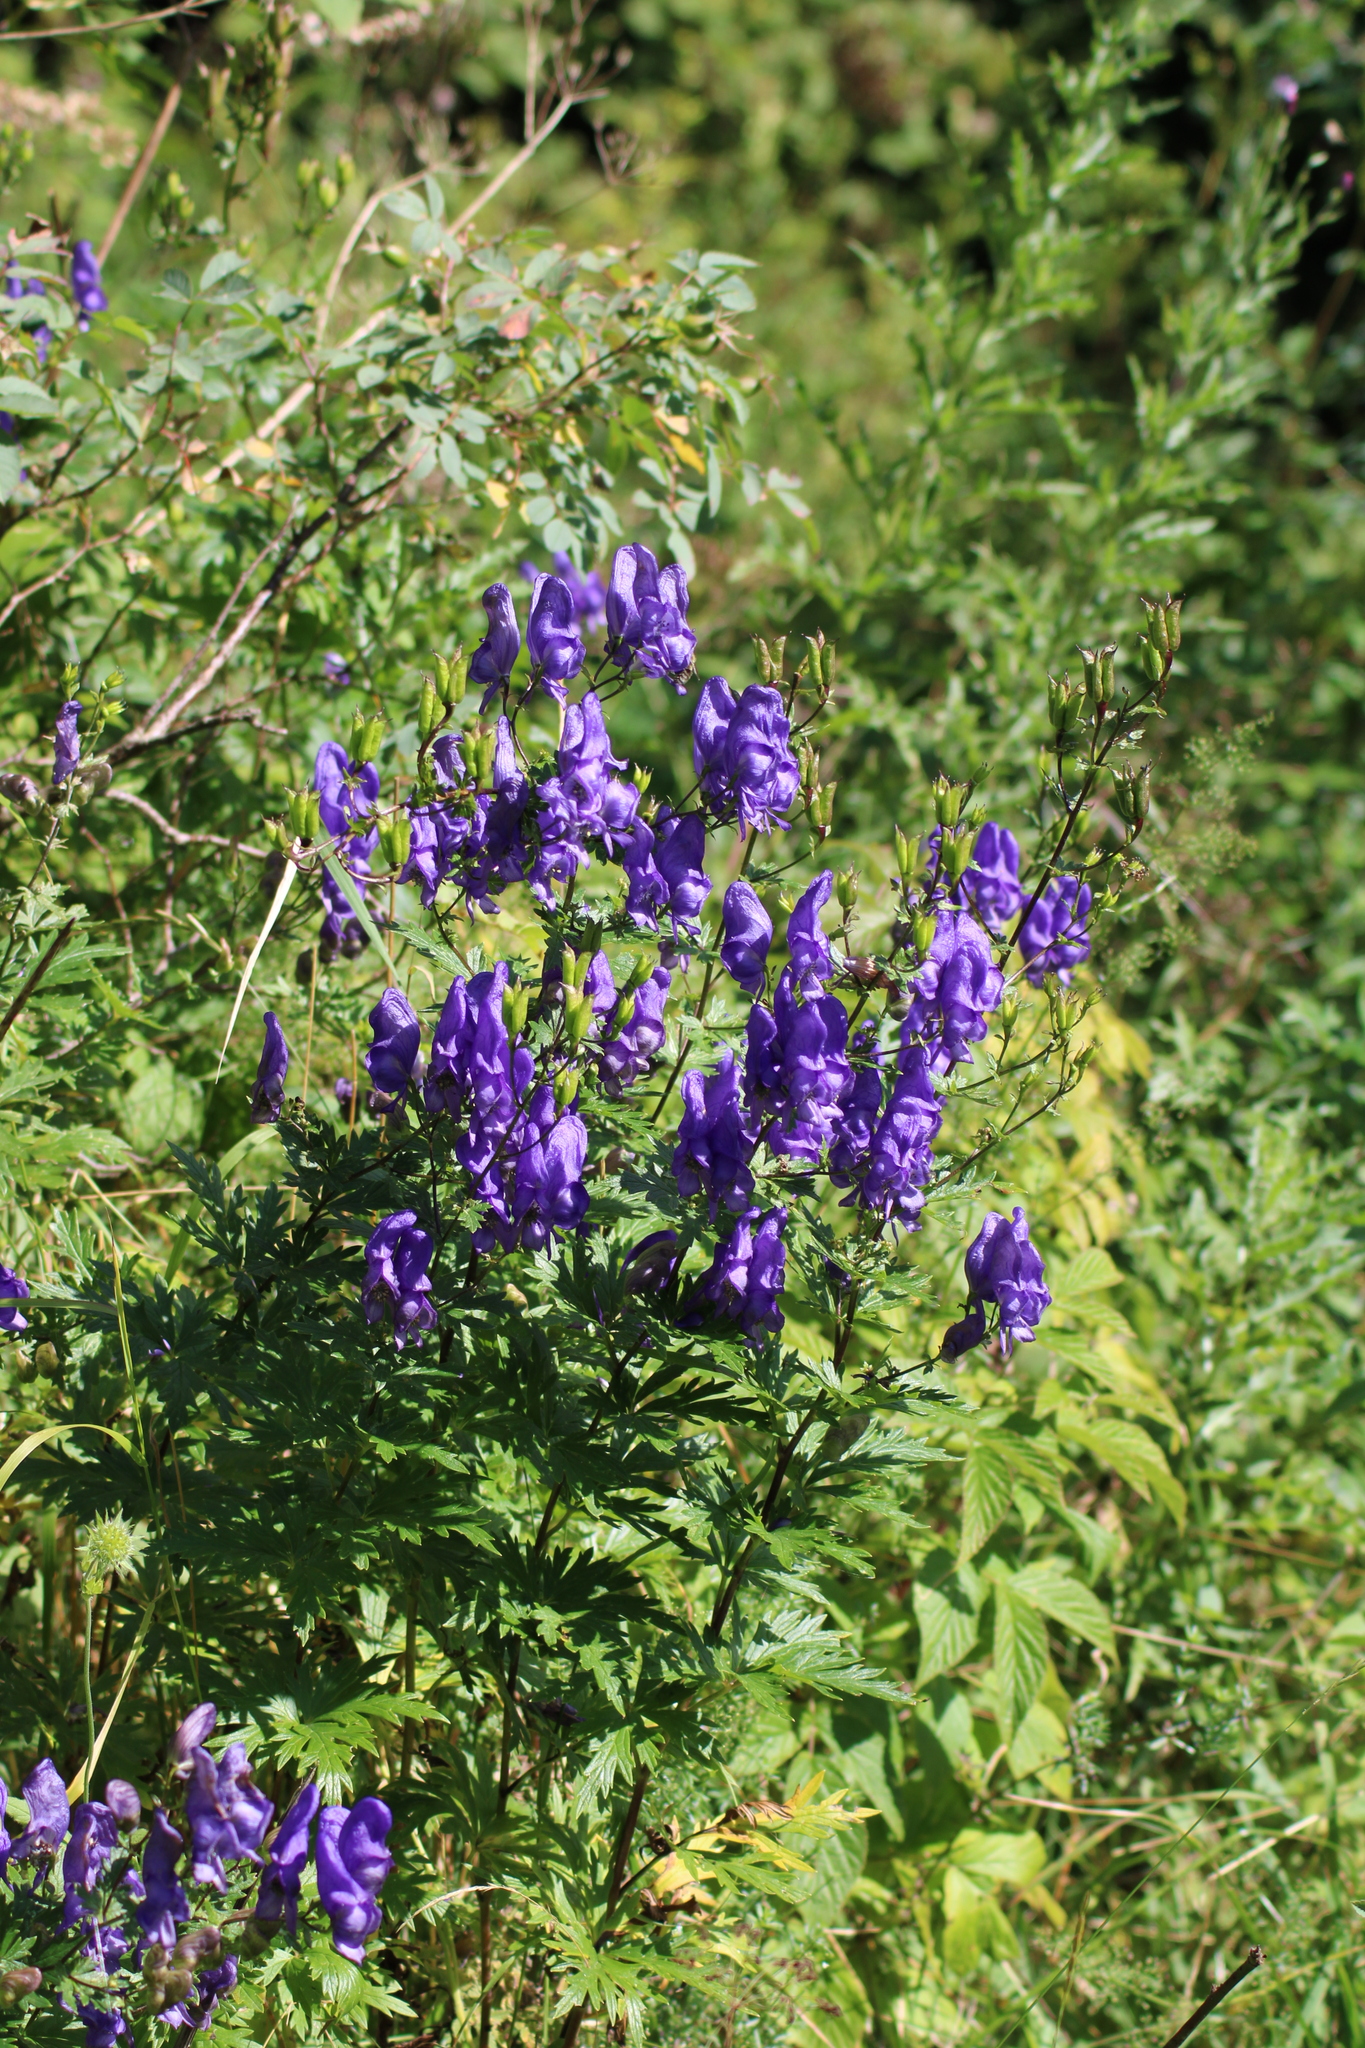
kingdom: Plantae
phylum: Tracheophyta
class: Magnoliopsida
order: Ranunculales
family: Ranunculaceae
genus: Aconitum
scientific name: Aconitum variegatum
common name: Manchurian monkshood
